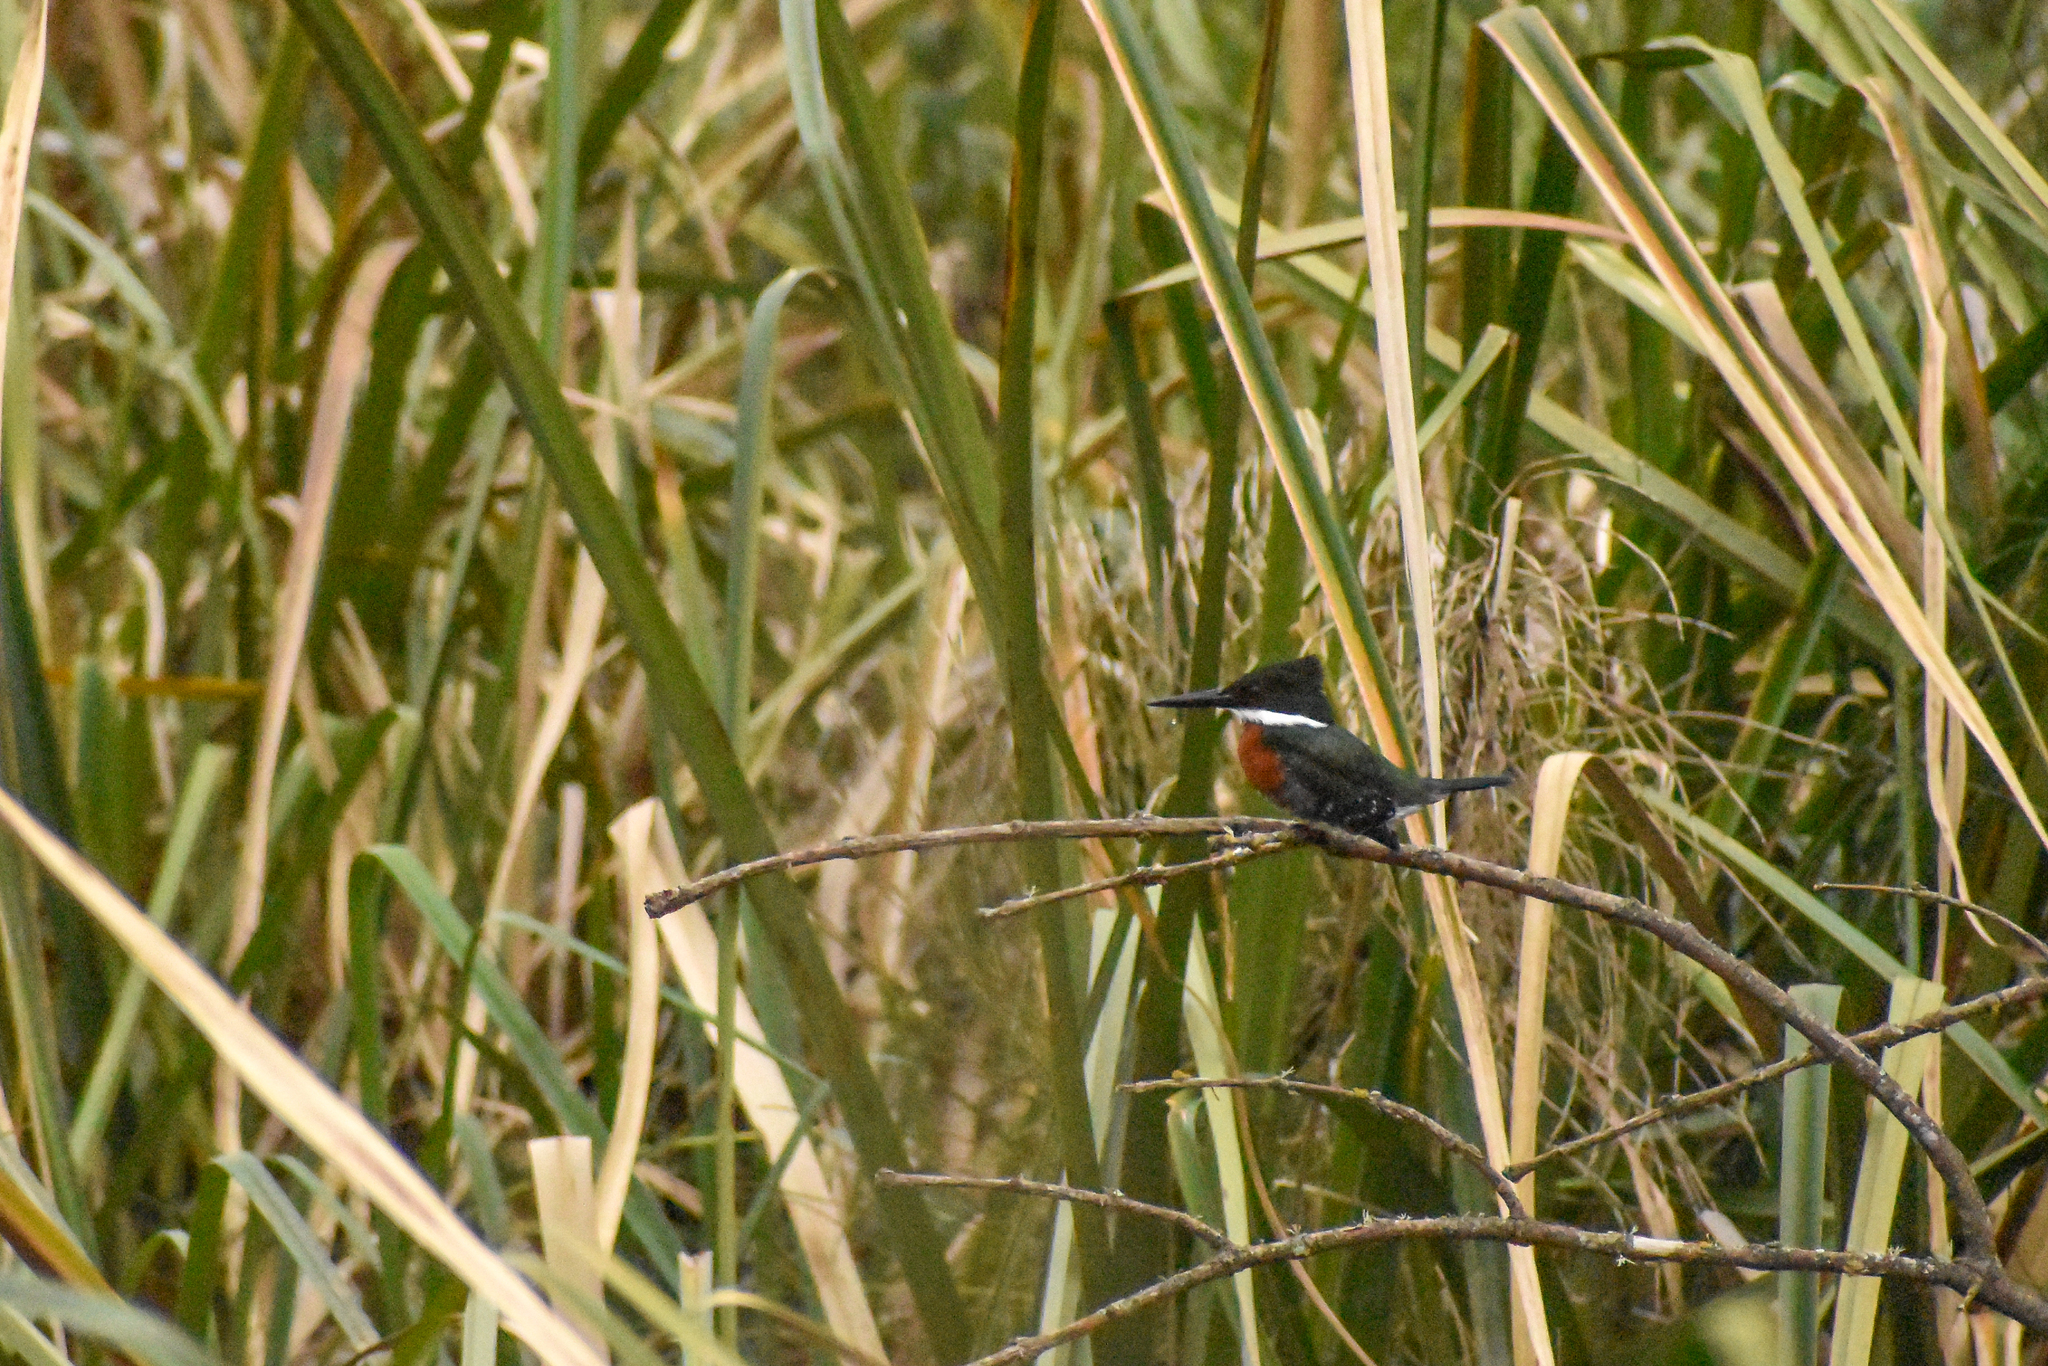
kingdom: Animalia
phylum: Chordata
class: Aves
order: Coraciiformes
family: Alcedinidae
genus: Chloroceryle
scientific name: Chloroceryle americana
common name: Green kingfisher
